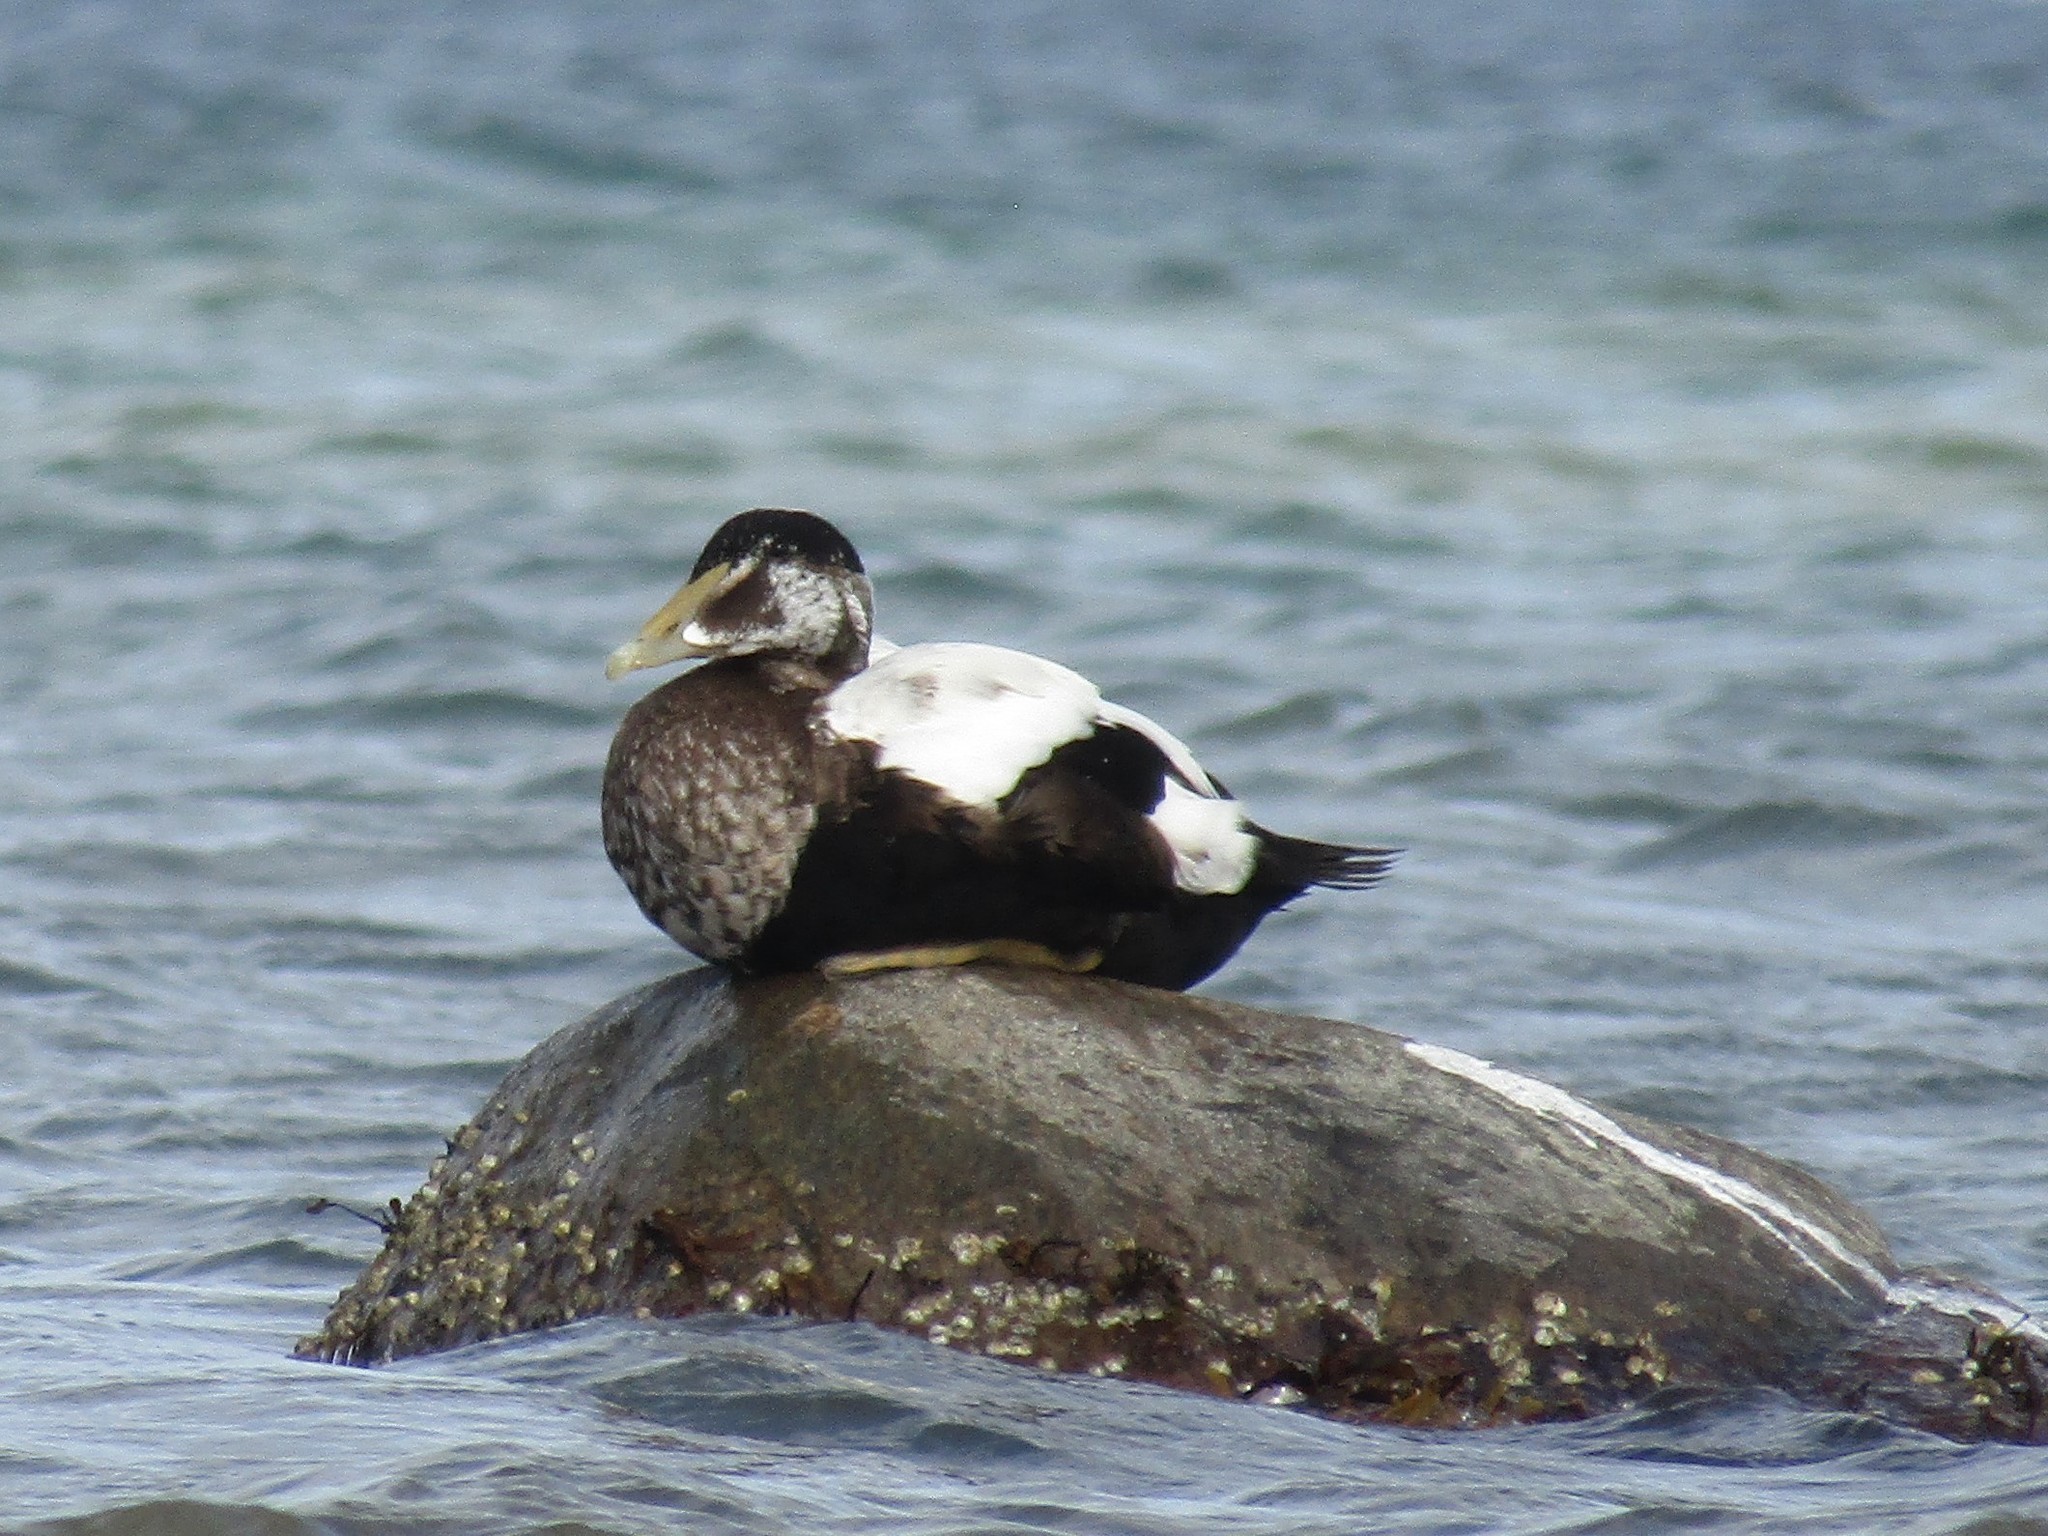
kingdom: Animalia
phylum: Chordata
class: Aves
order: Anseriformes
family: Anatidae
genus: Somateria
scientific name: Somateria mollissima
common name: Common eider
